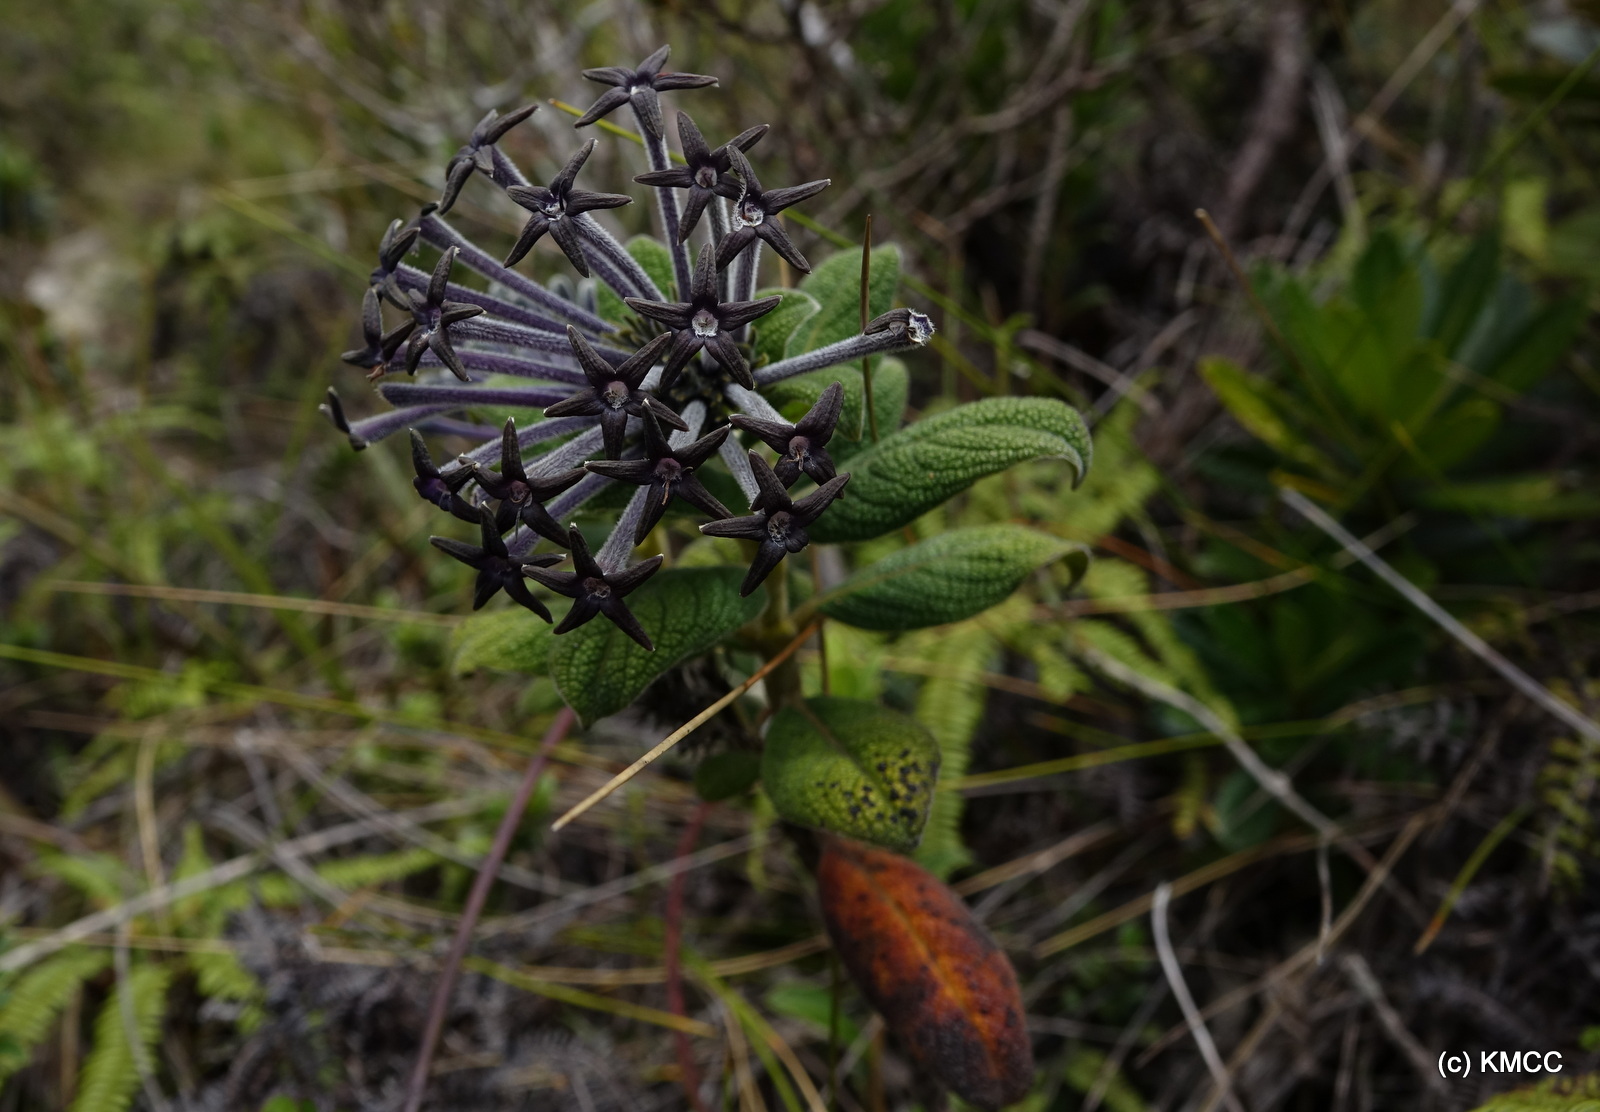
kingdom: Plantae
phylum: Tracheophyta
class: Magnoliopsida
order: Gentianales
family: Rubiaceae
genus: Payera
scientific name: Payera marojejyensis
